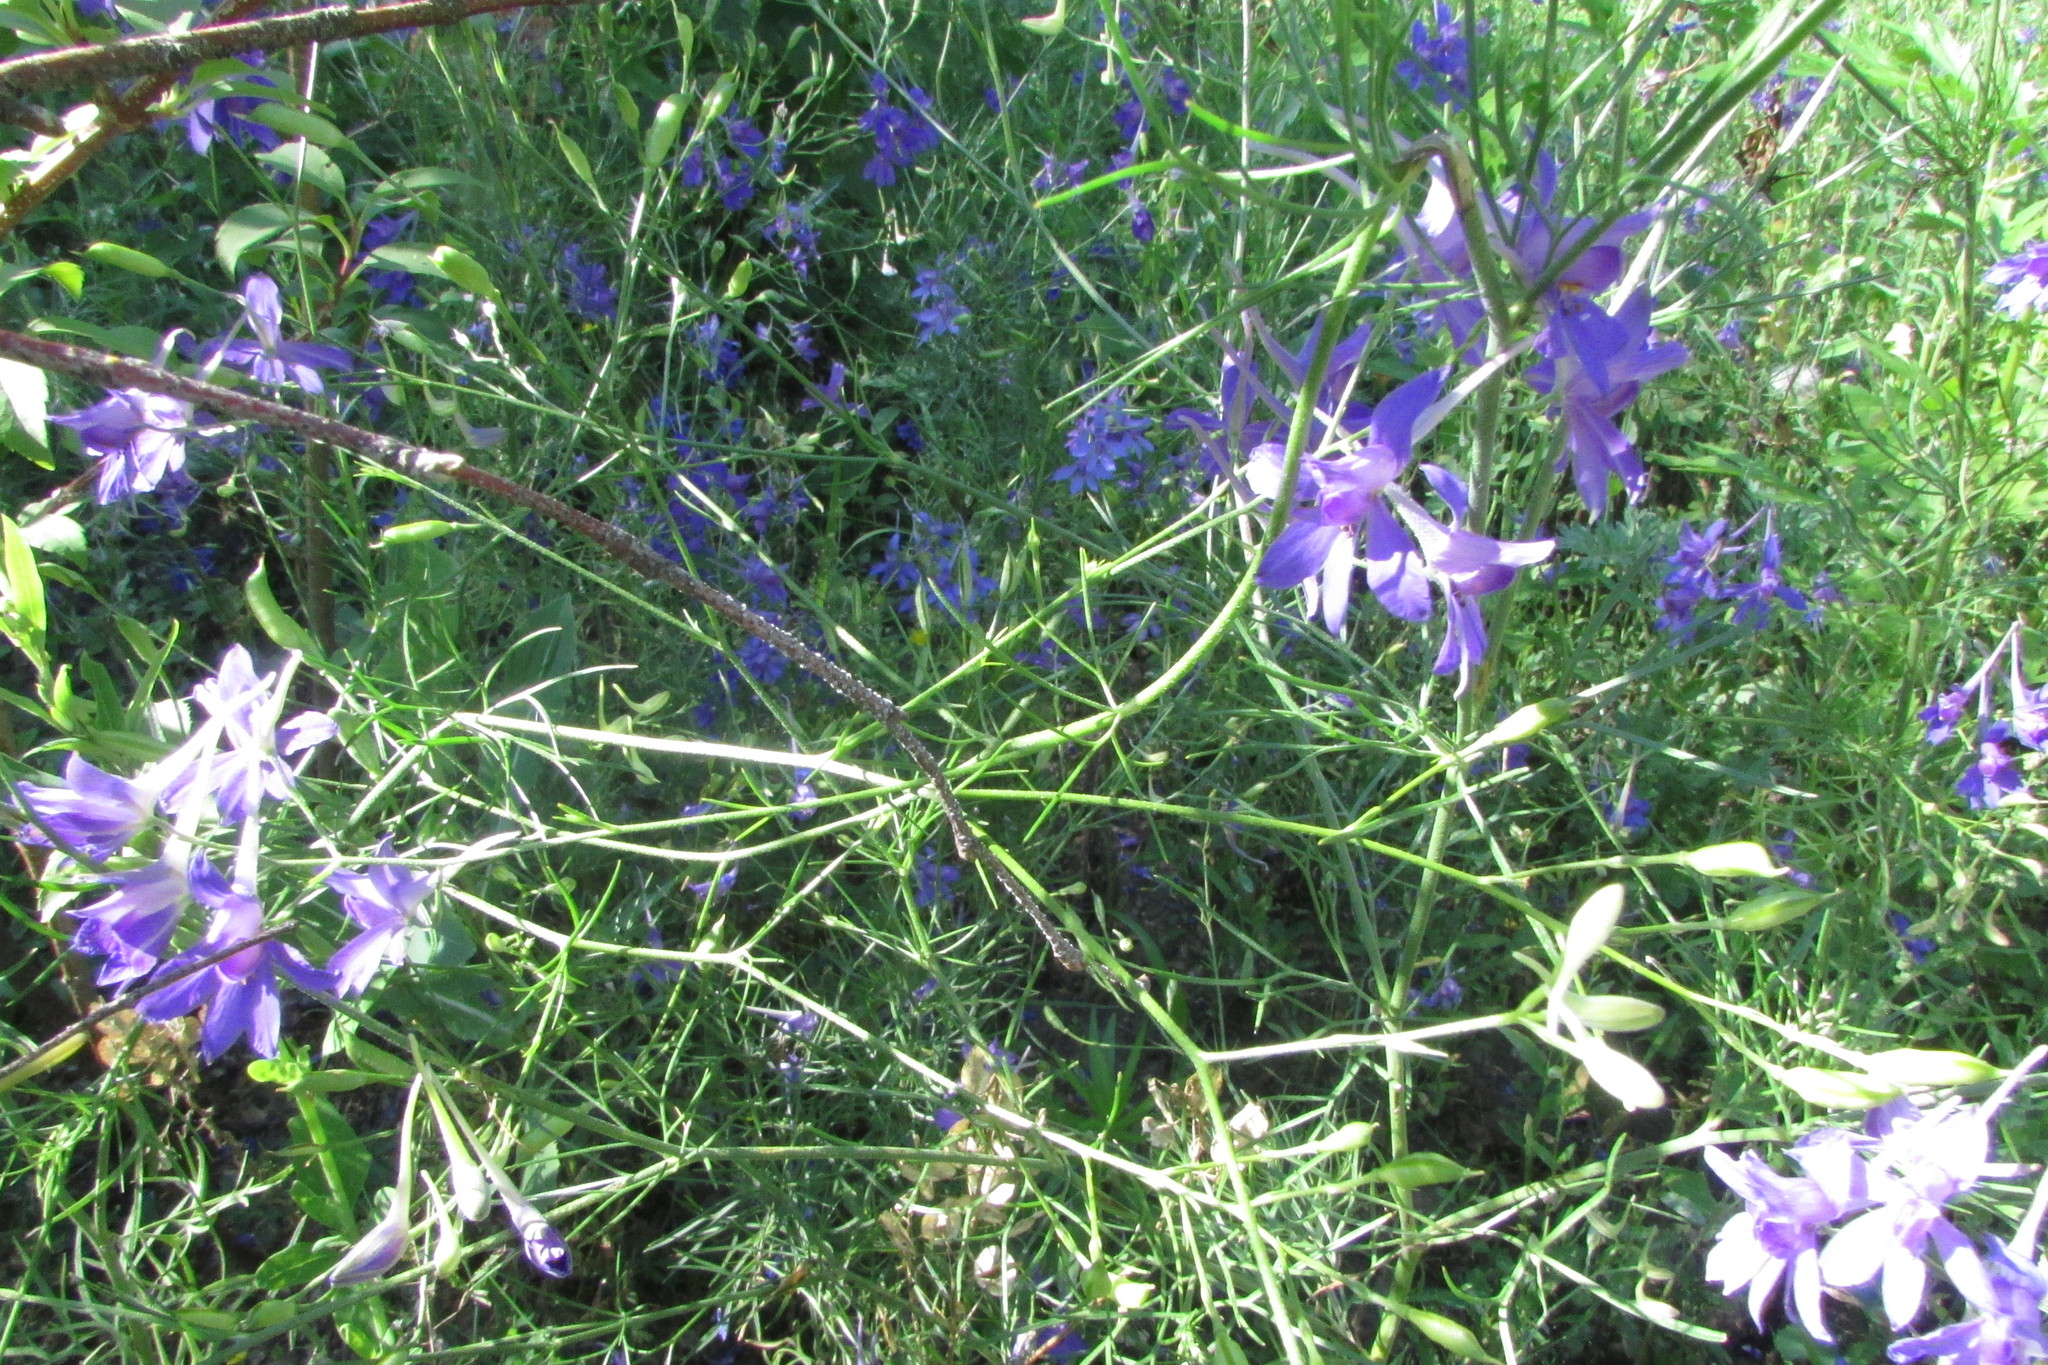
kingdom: Plantae
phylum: Tracheophyta
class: Magnoliopsida
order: Ranunculales
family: Ranunculaceae
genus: Delphinium
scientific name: Delphinium consolida
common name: Branching larkspur
